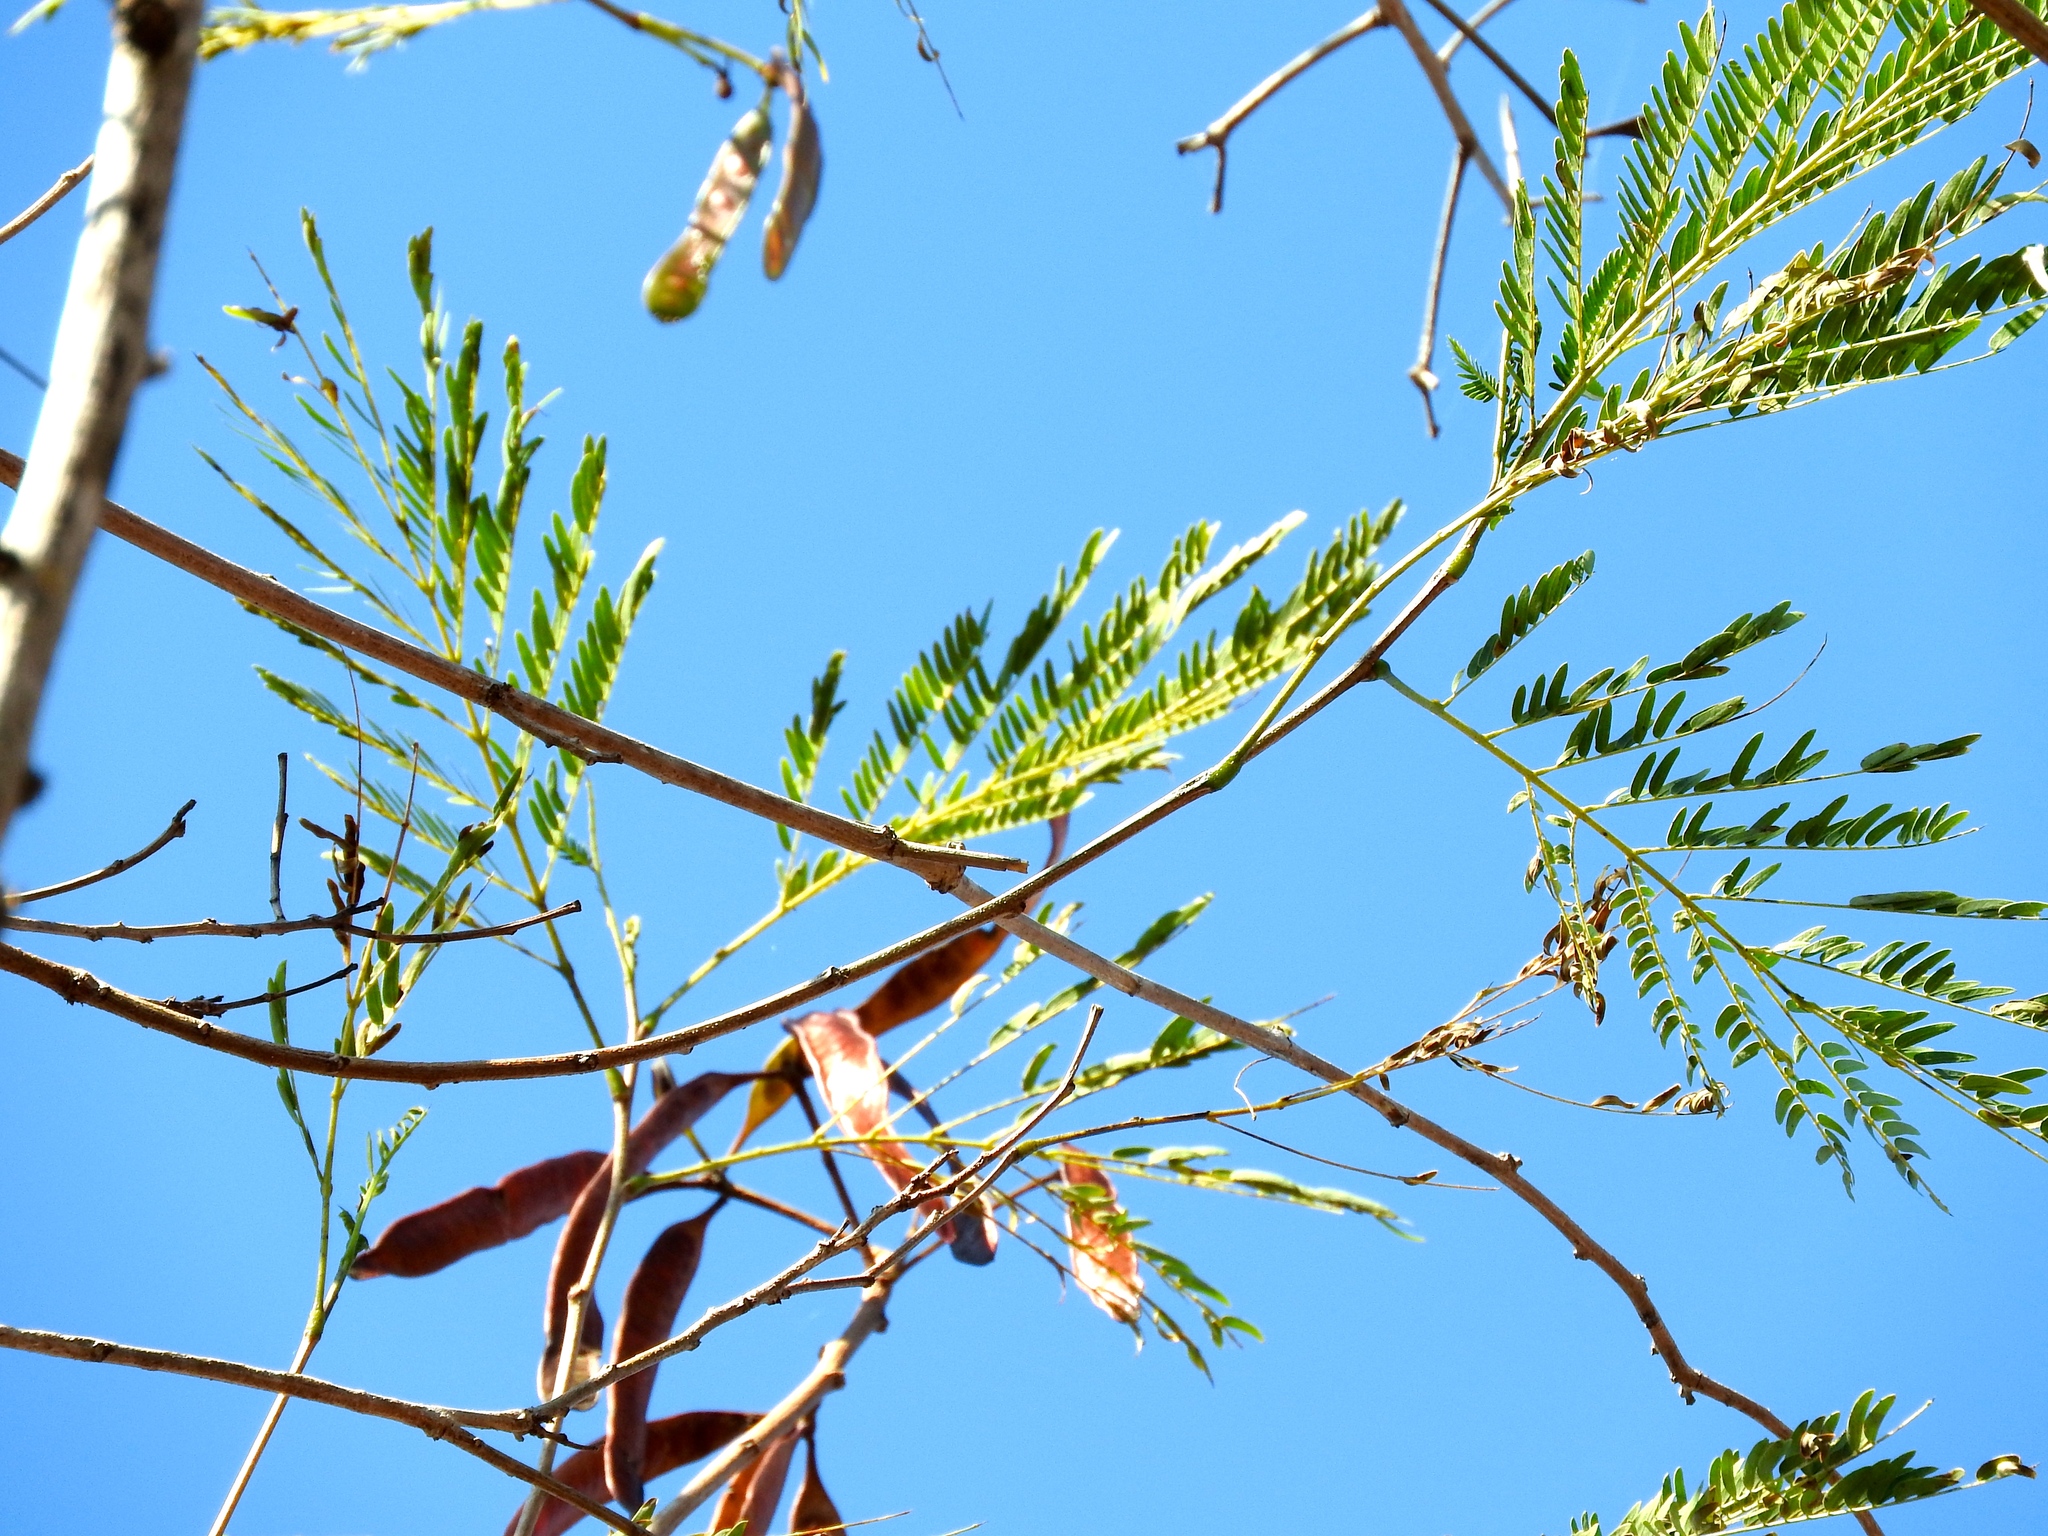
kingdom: Plantae
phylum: Tracheophyta
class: Magnoliopsida
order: Fabales
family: Fabaceae
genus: Leucaena
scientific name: Leucaena leucocephala
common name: White leadtree
